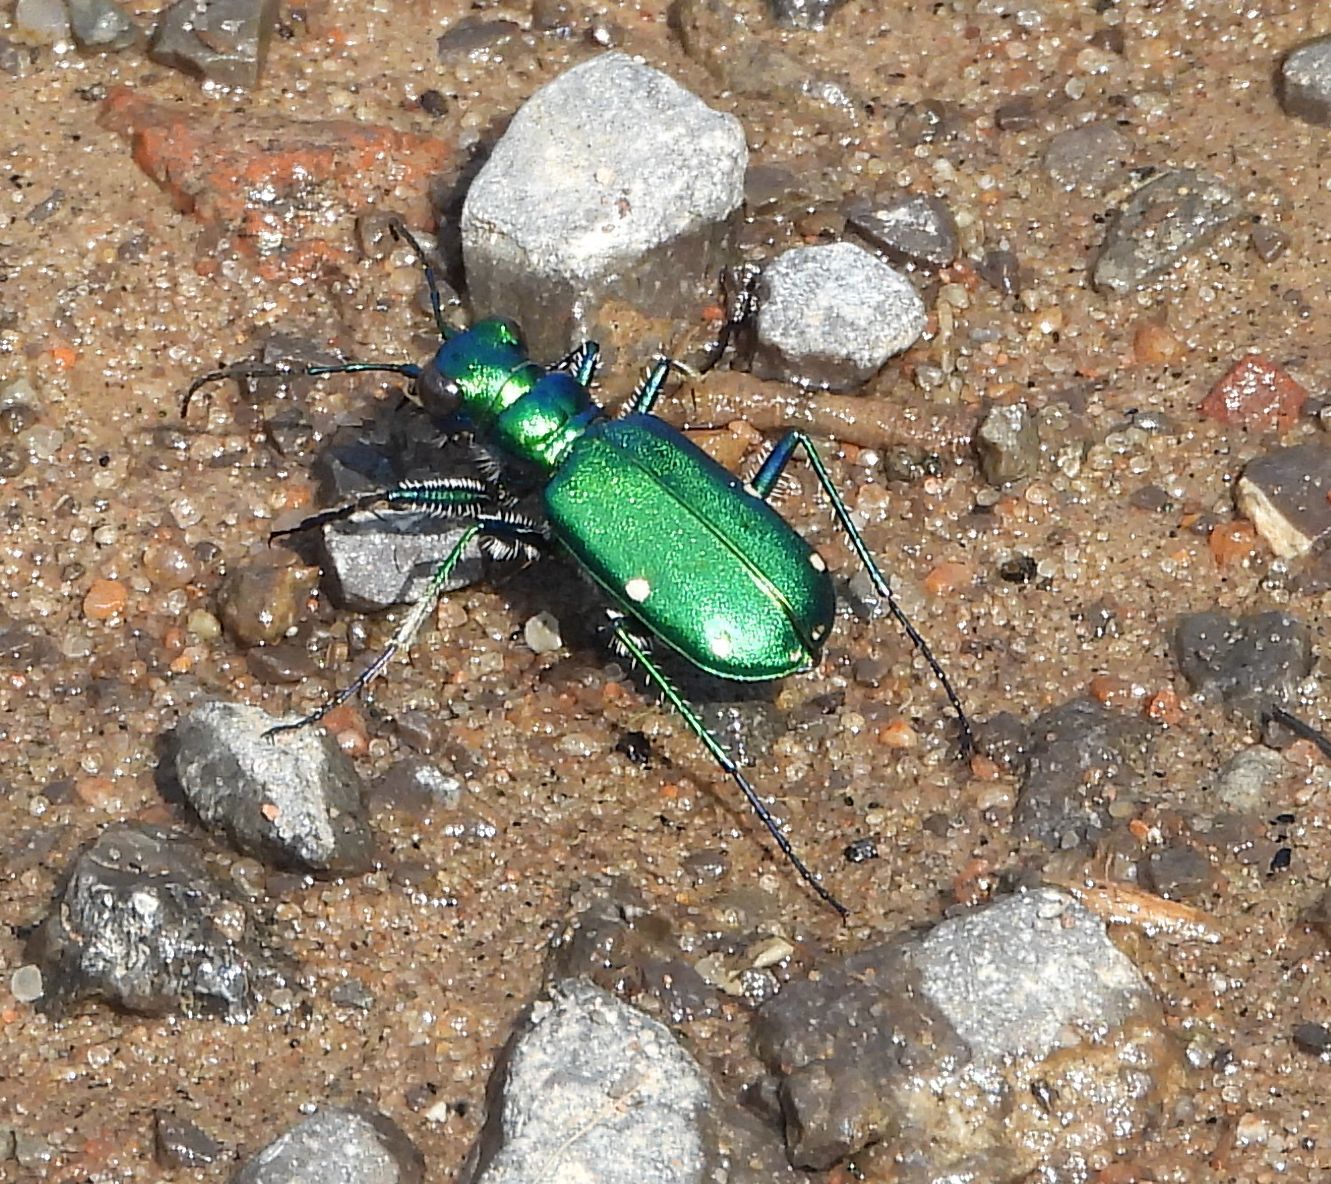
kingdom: Animalia
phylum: Arthropoda
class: Insecta
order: Coleoptera
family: Carabidae
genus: Cicindela
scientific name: Cicindela sexguttata
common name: Six-spotted tiger beetle
